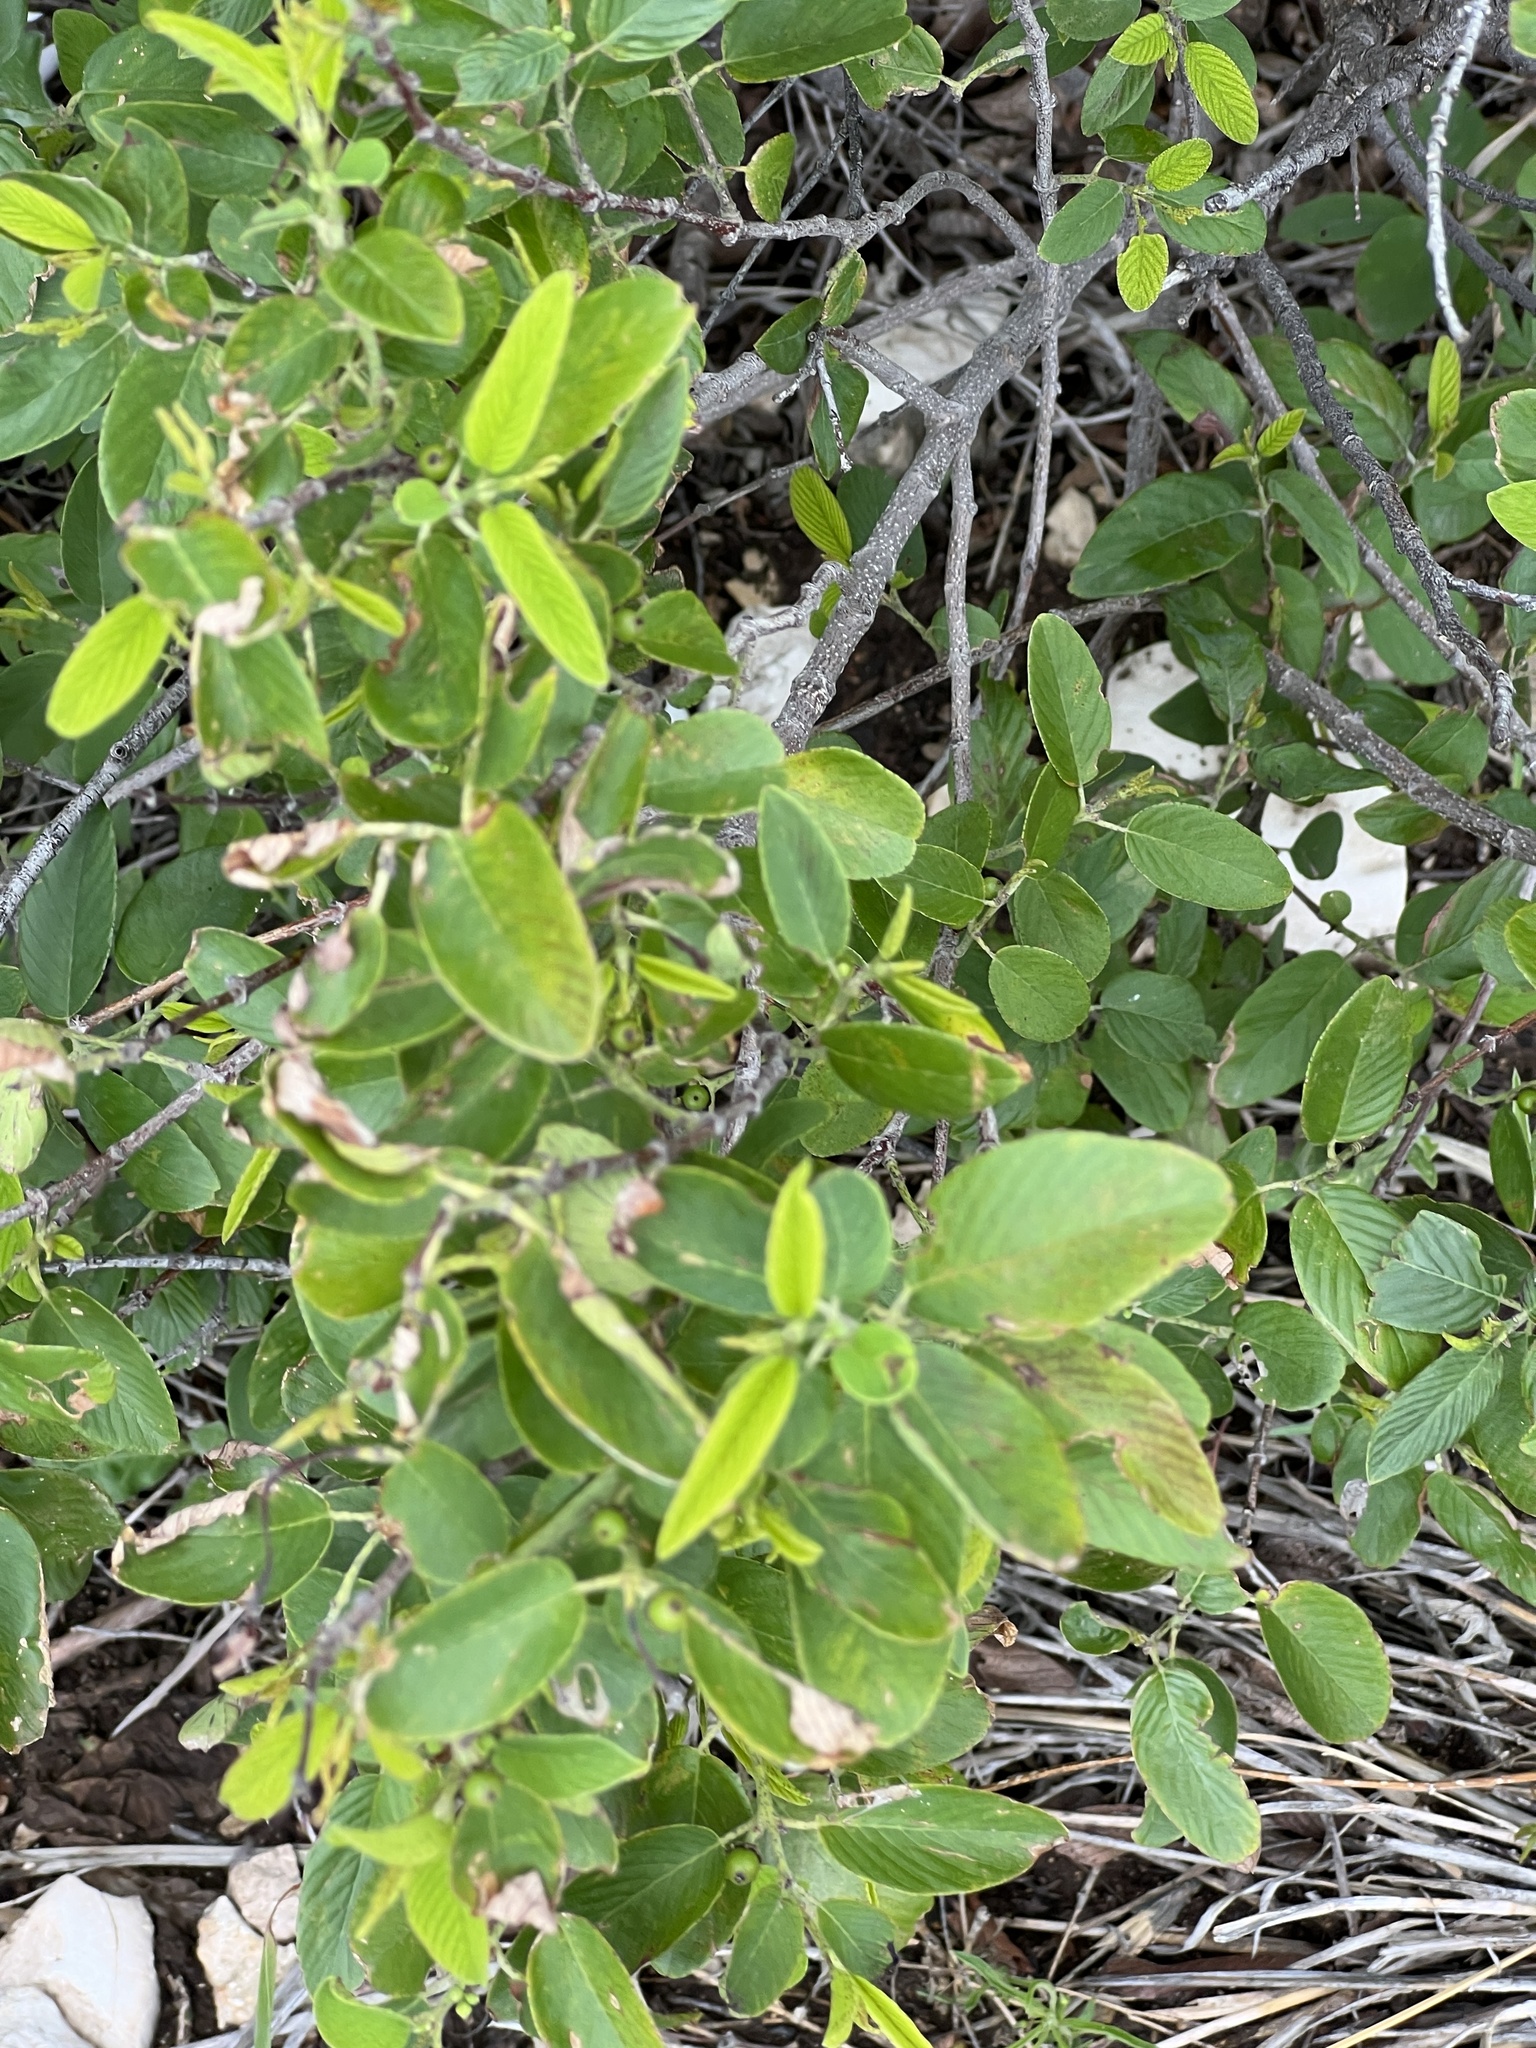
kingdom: Plantae
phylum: Tracheophyta
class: Magnoliopsida
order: Rosales
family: Rhamnaceae
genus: Karwinskia
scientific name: Karwinskia humboldtiana
